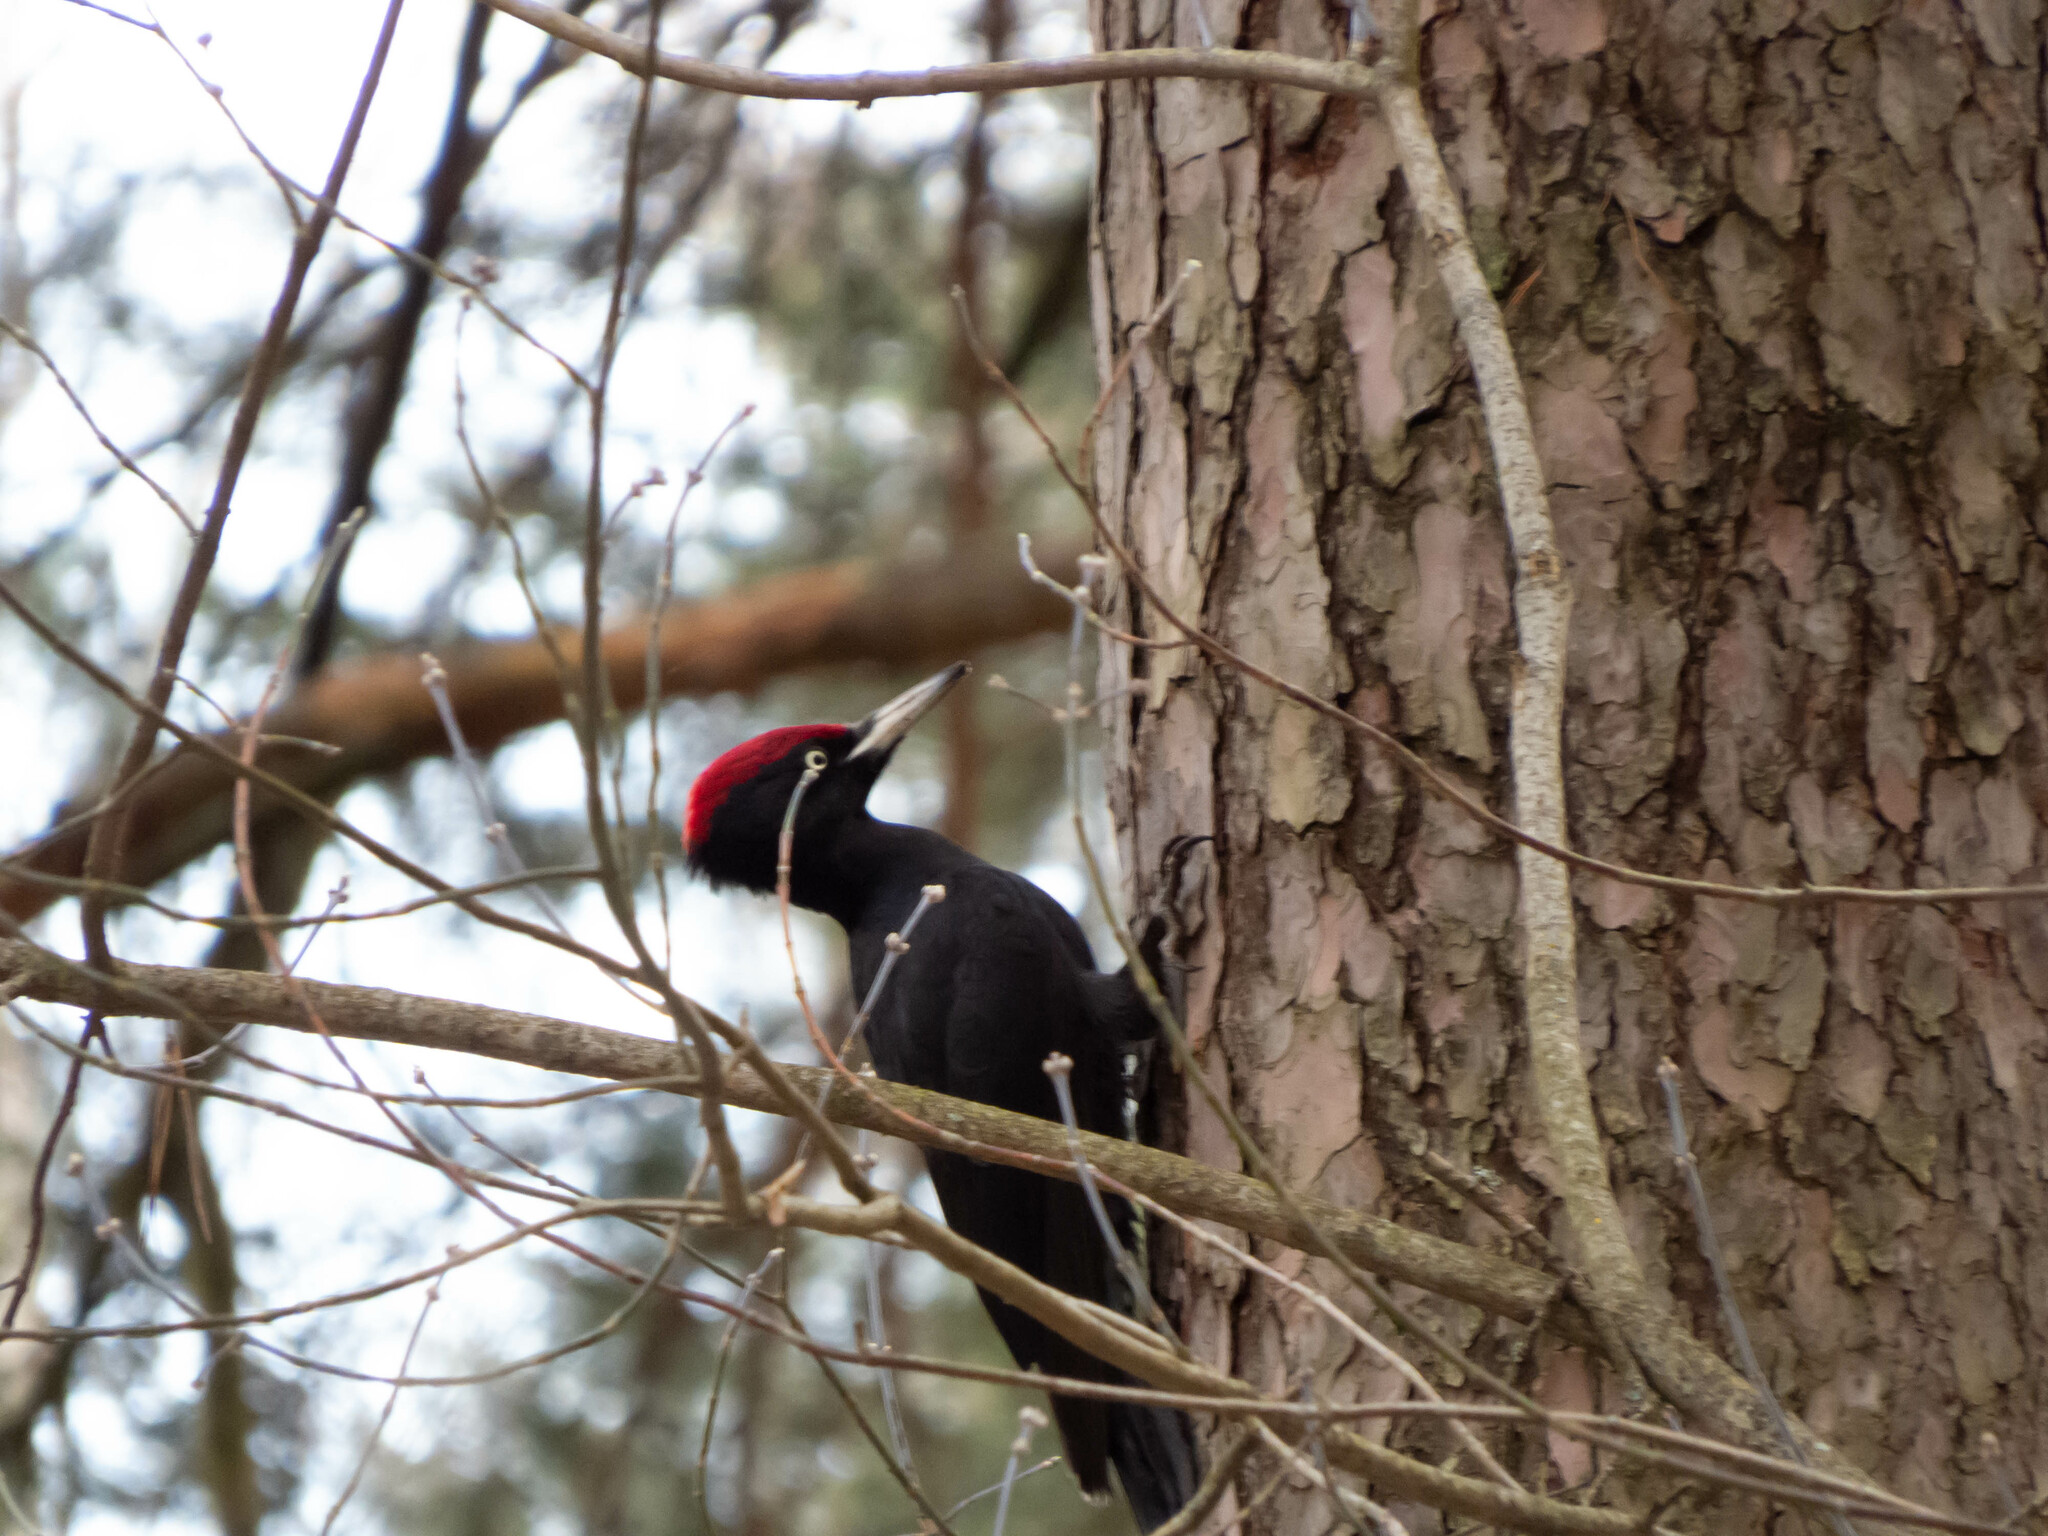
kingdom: Animalia
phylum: Chordata
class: Aves
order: Piciformes
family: Picidae
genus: Dryocopus
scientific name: Dryocopus martius
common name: Black woodpecker
